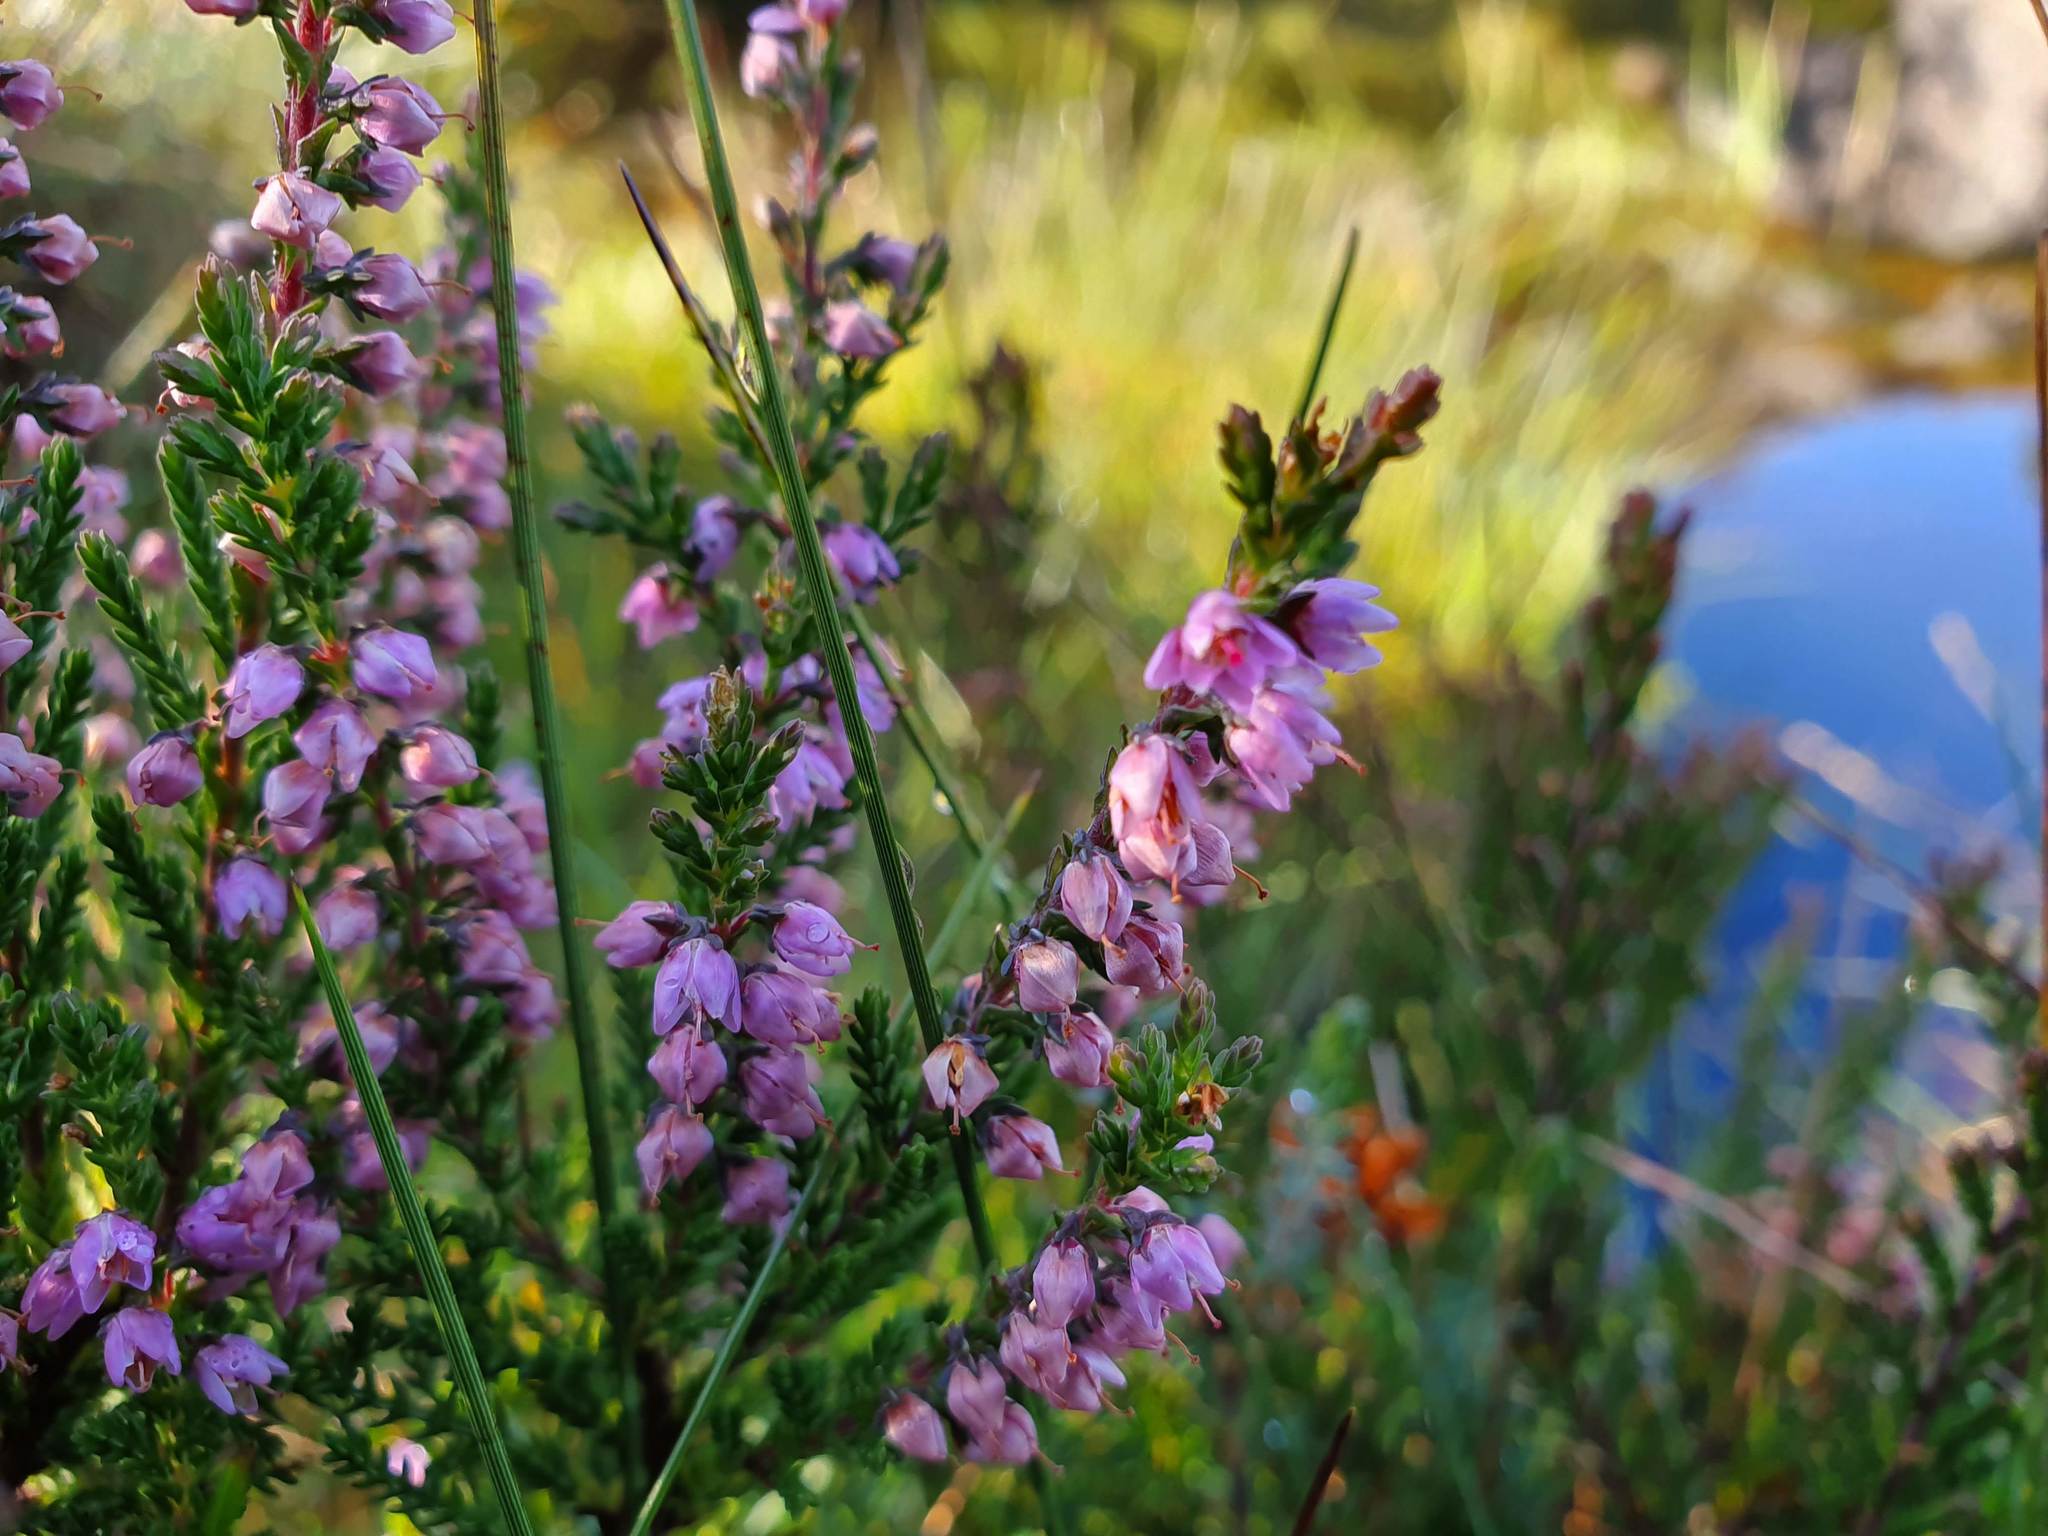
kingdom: Plantae
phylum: Tracheophyta
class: Magnoliopsida
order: Ericales
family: Ericaceae
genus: Calluna
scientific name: Calluna vulgaris
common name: Heather
